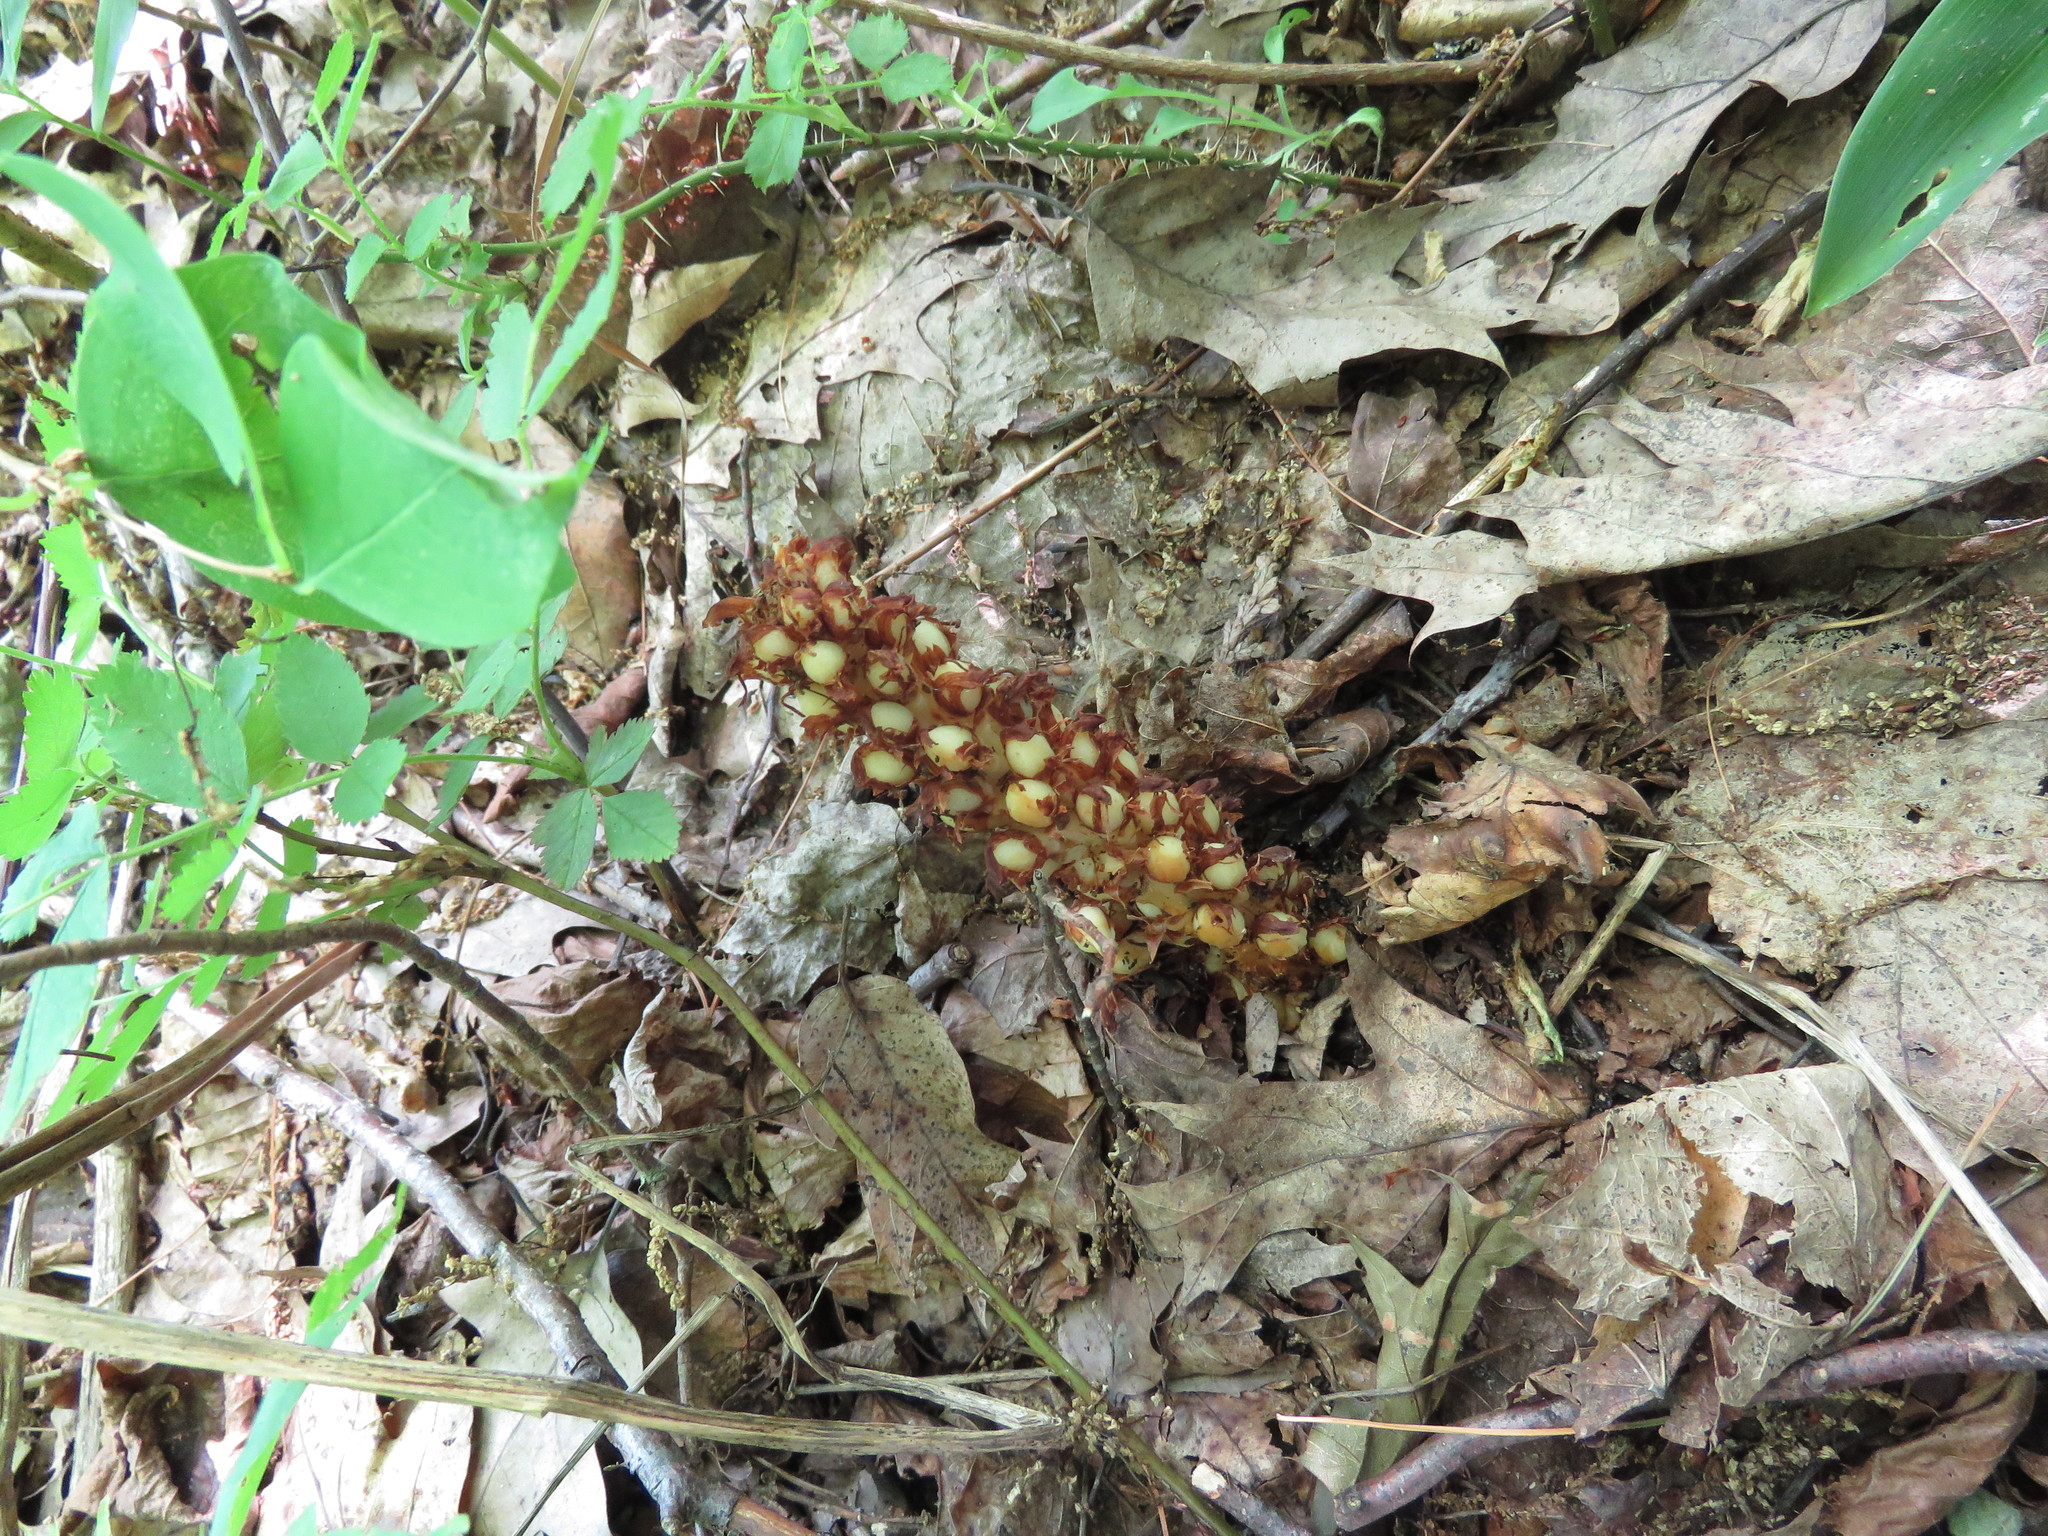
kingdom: Plantae
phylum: Tracheophyta
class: Magnoliopsida
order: Lamiales
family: Orobanchaceae
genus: Conopholis
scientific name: Conopholis americana
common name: American cancer-root
